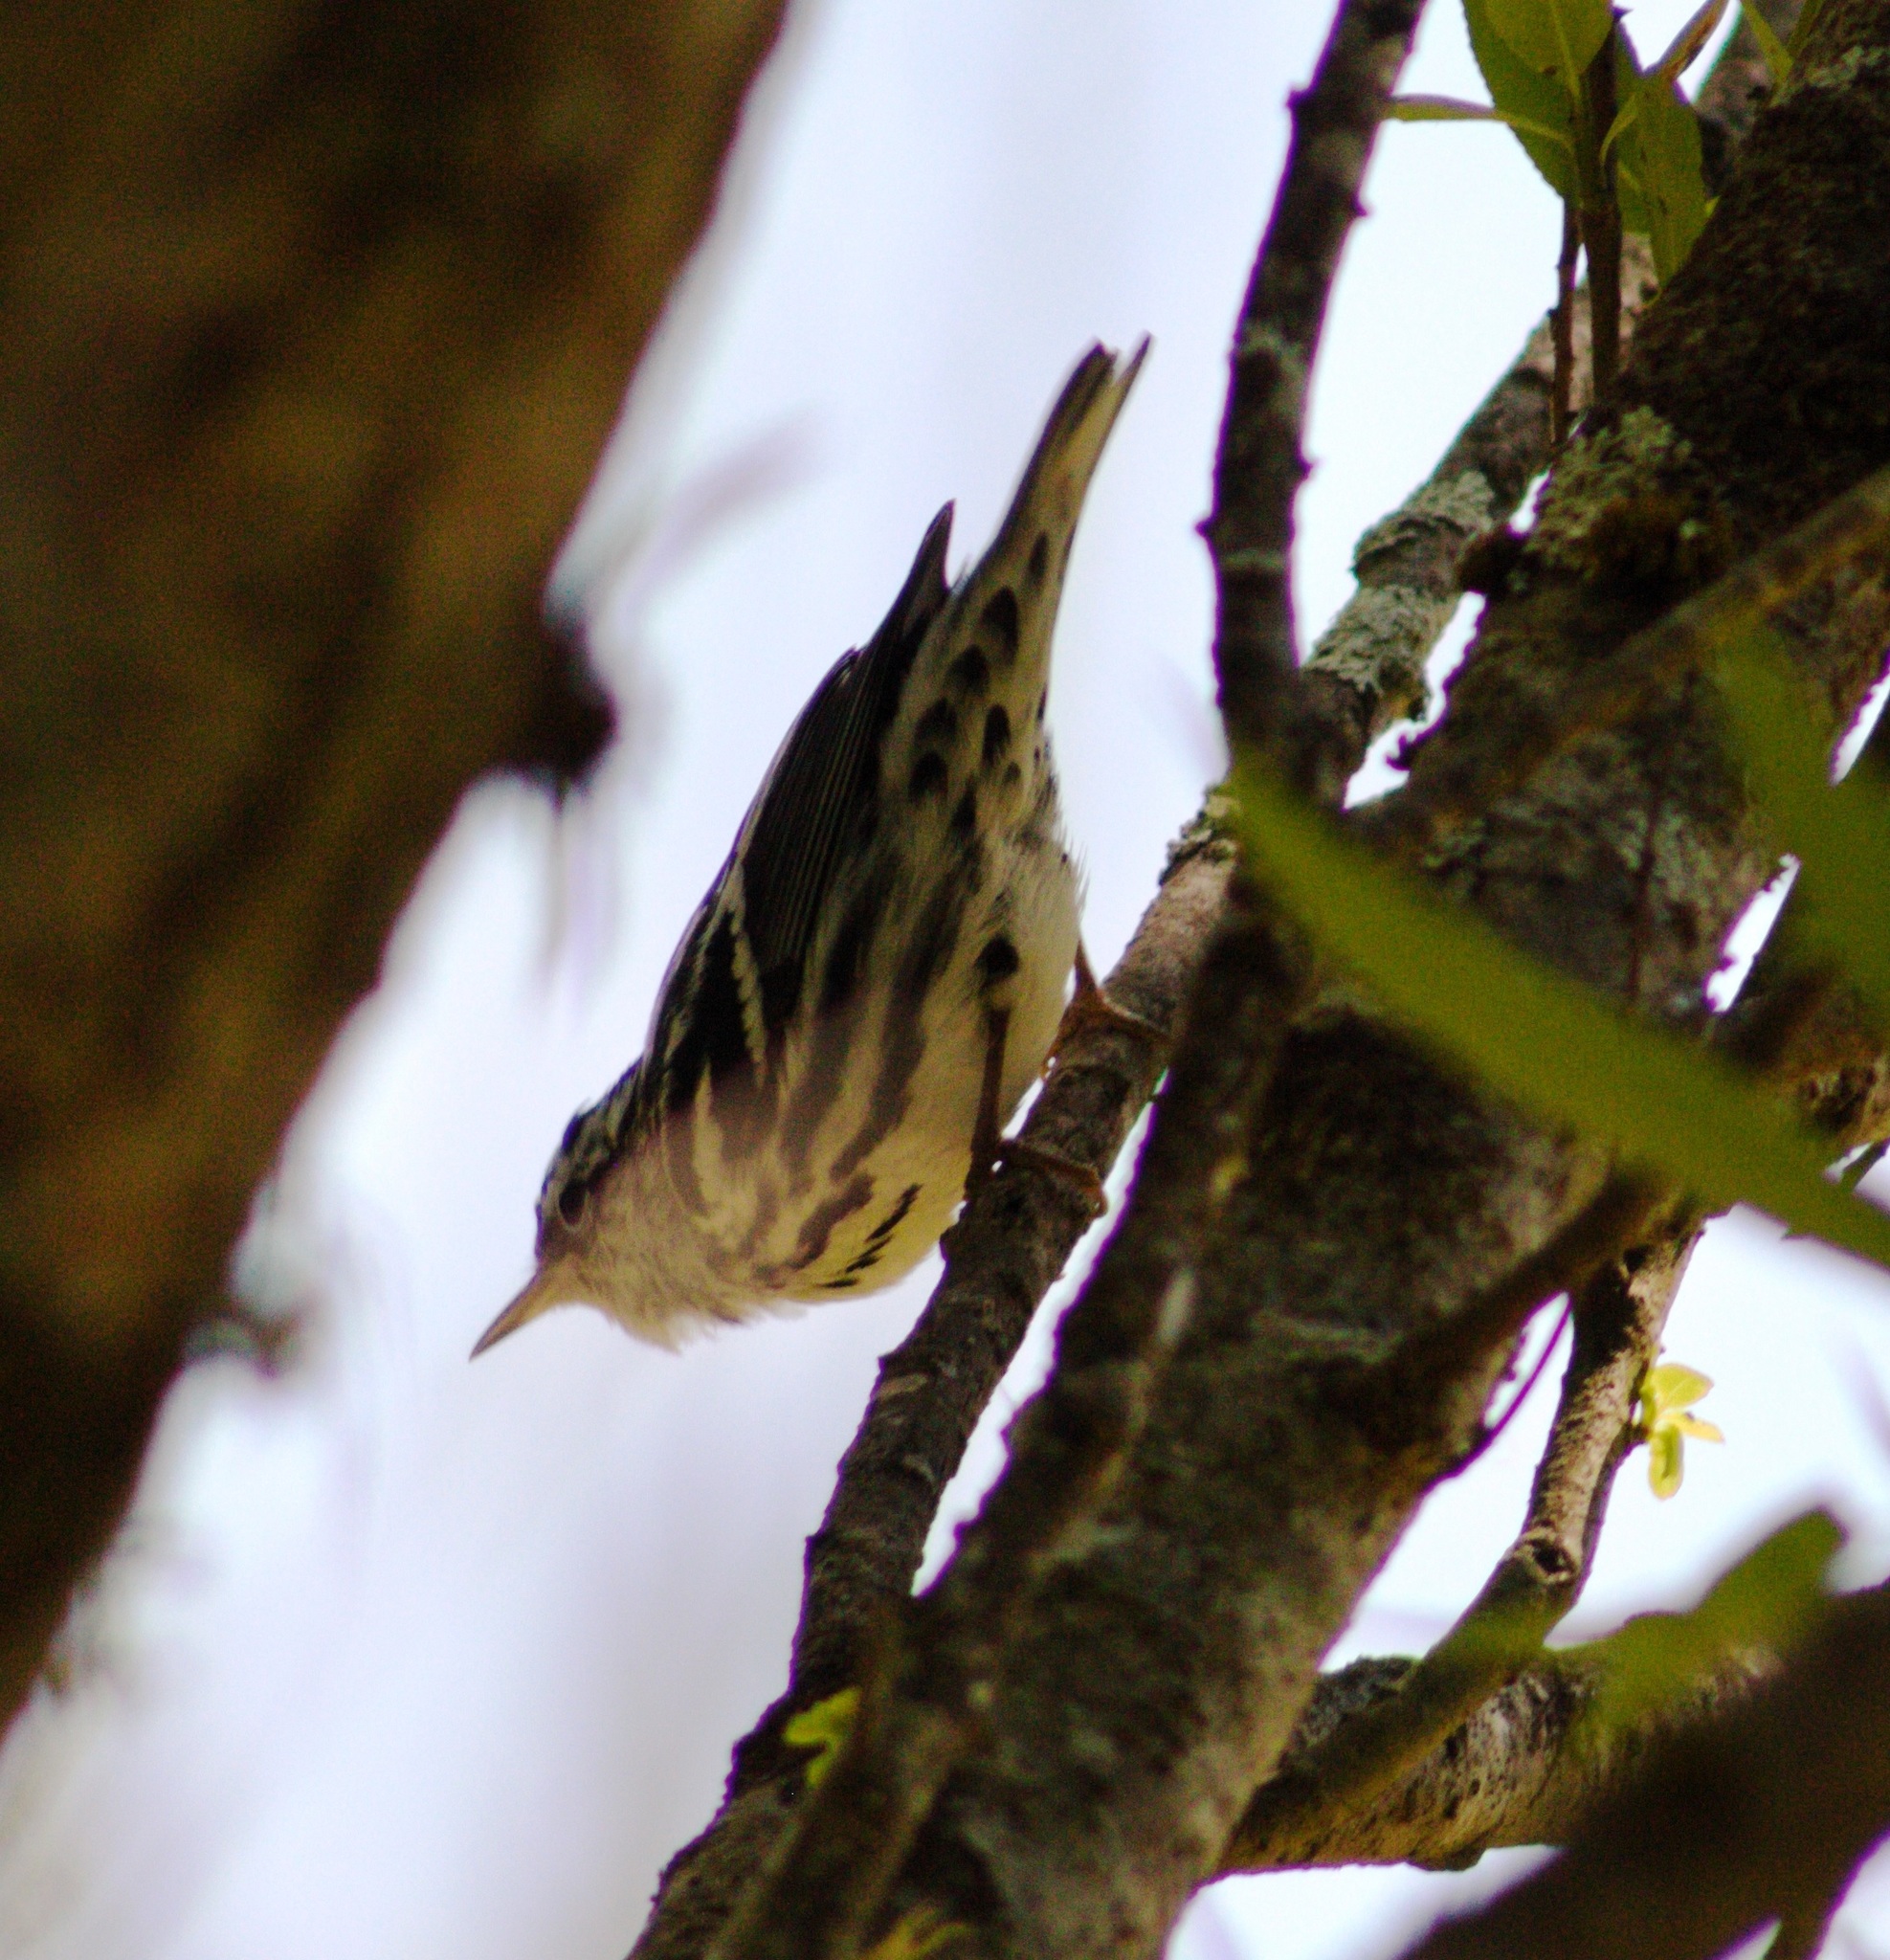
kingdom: Animalia
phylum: Chordata
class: Aves
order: Passeriformes
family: Parulidae
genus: Mniotilta
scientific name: Mniotilta varia
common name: Black-and-white warbler
